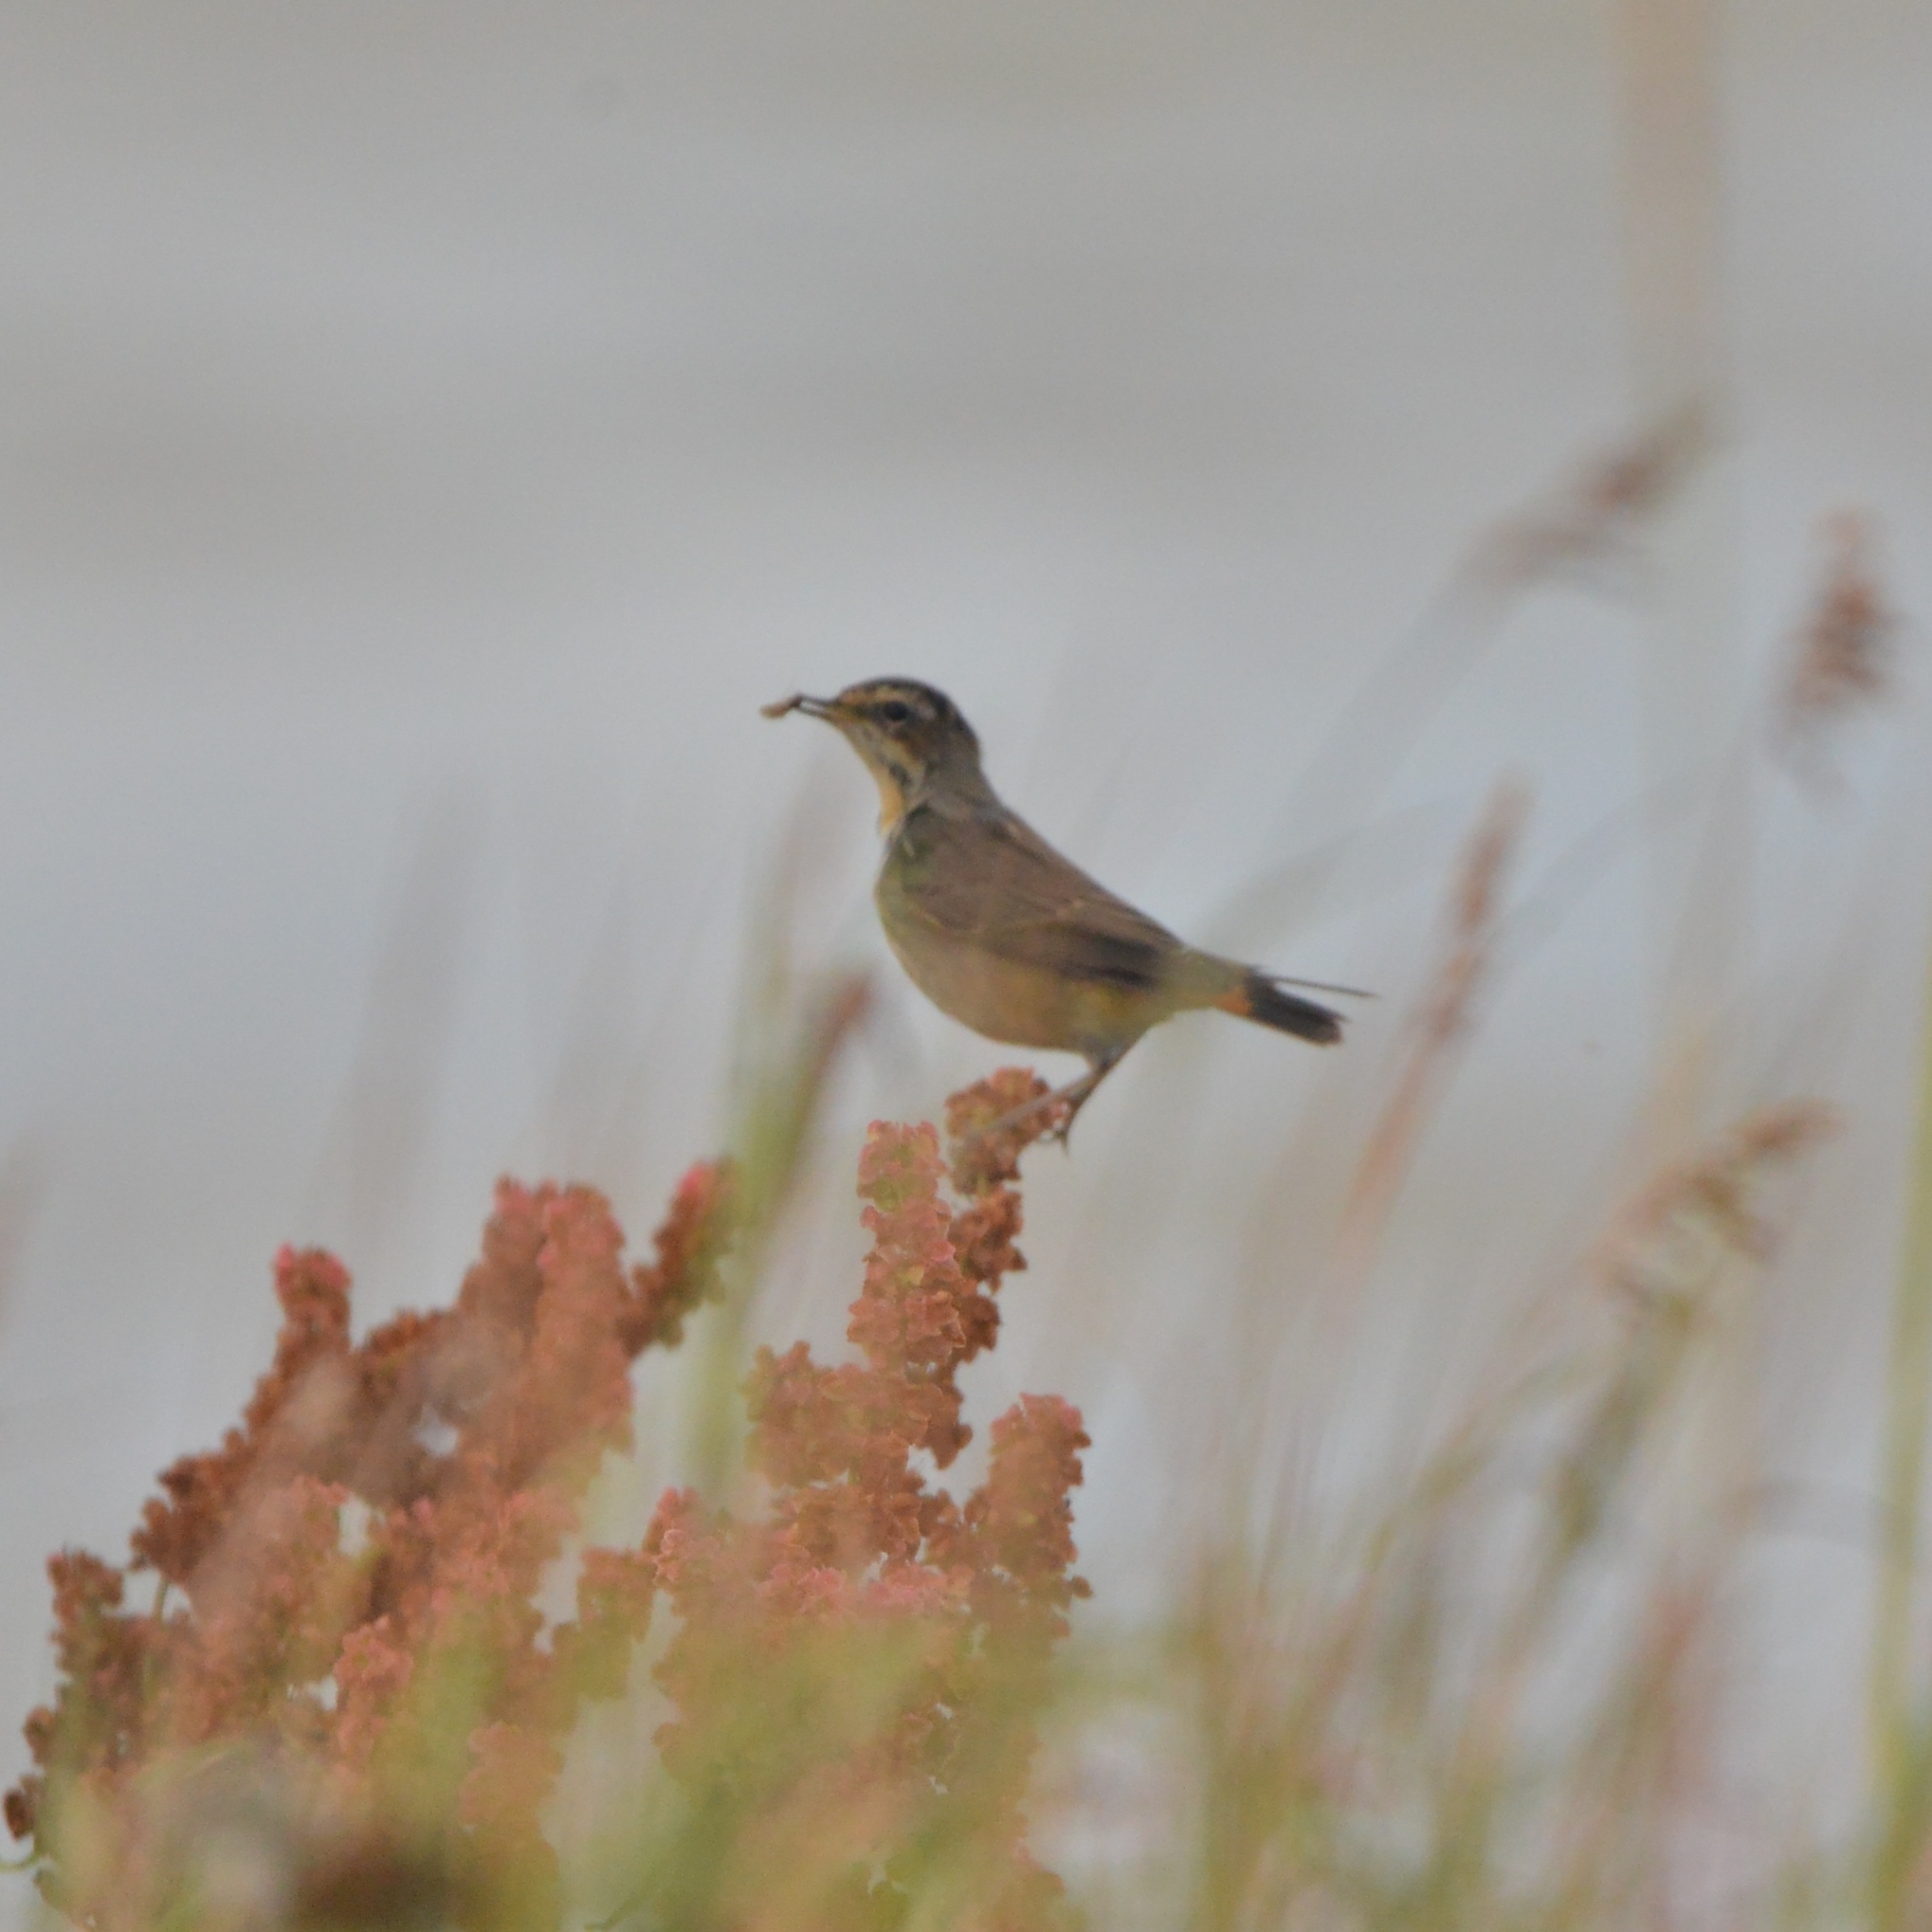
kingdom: Animalia
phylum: Chordata
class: Aves
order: Passeriformes
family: Muscicapidae
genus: Luscinia
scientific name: Luscinia svecica
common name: Bluethroat
